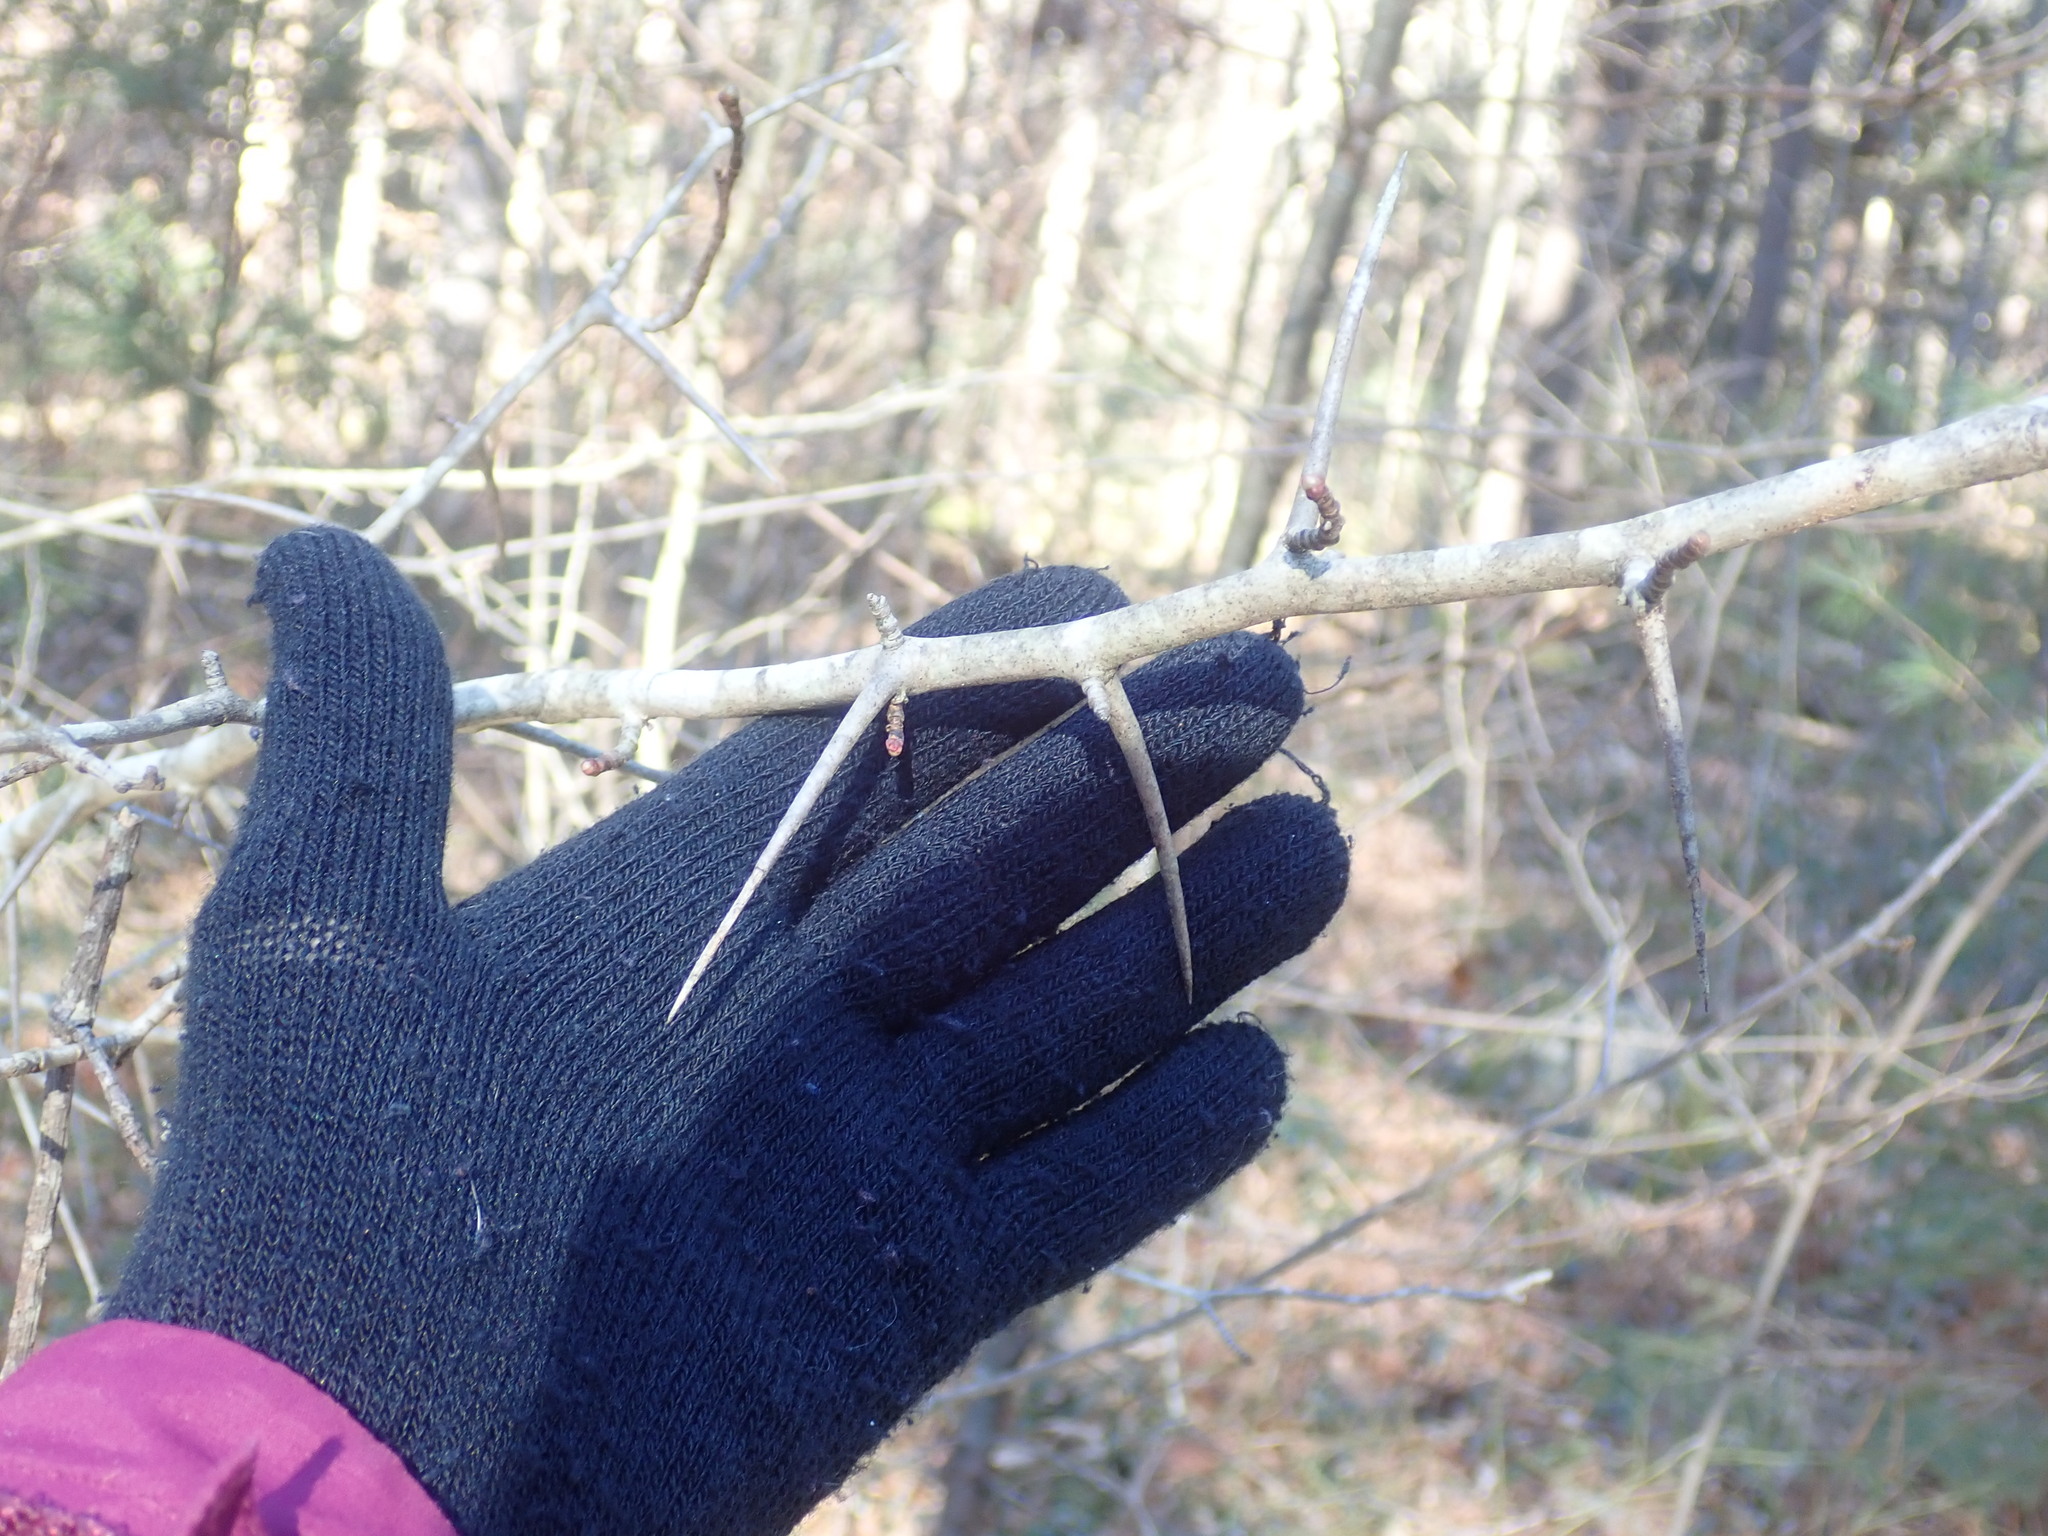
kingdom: Plantae
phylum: Tracheophyta
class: Magnoliopsida
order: Rosales
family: Rosaceae
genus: Crataegus
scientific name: Crataegus
